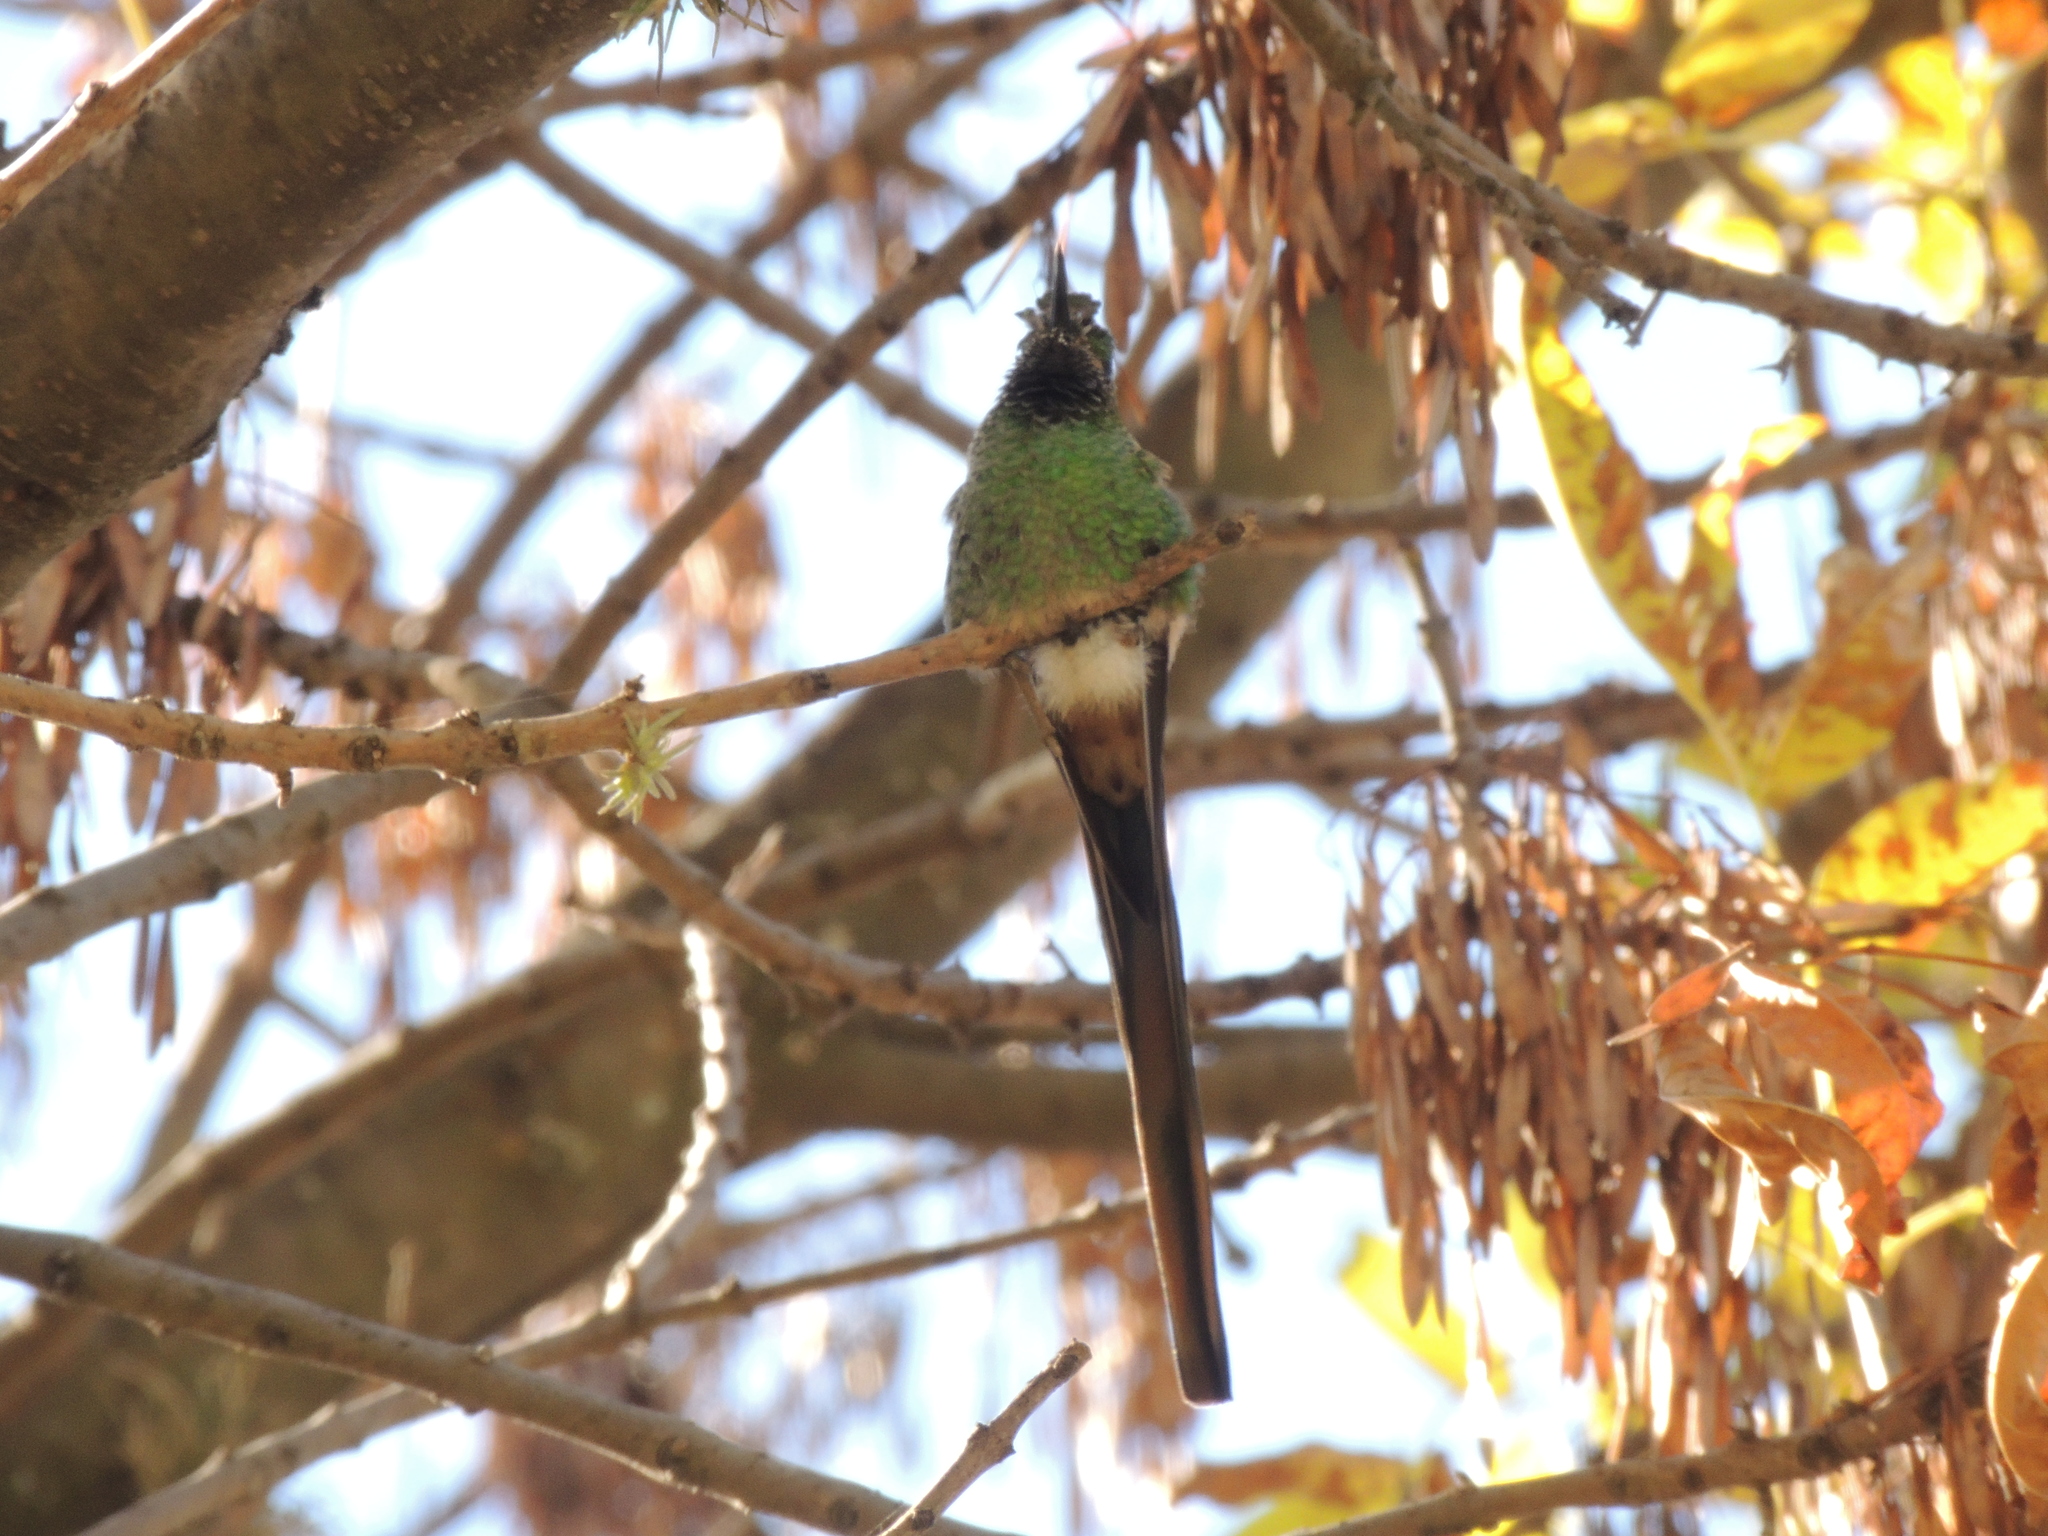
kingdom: Animalia
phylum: Chordata
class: Aves
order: Apodiformes
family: Trochilidae
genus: Sappho
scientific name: Sappho sparganurus
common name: Red-tailed comet
